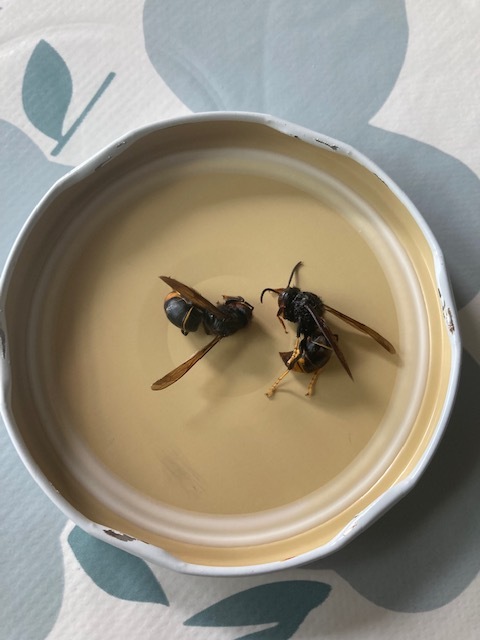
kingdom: Animalia
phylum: Arthropoda
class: Insecta
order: Hymenoptera
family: Vespidae
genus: Vespa
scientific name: Vespa velutina
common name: Asian hornet
